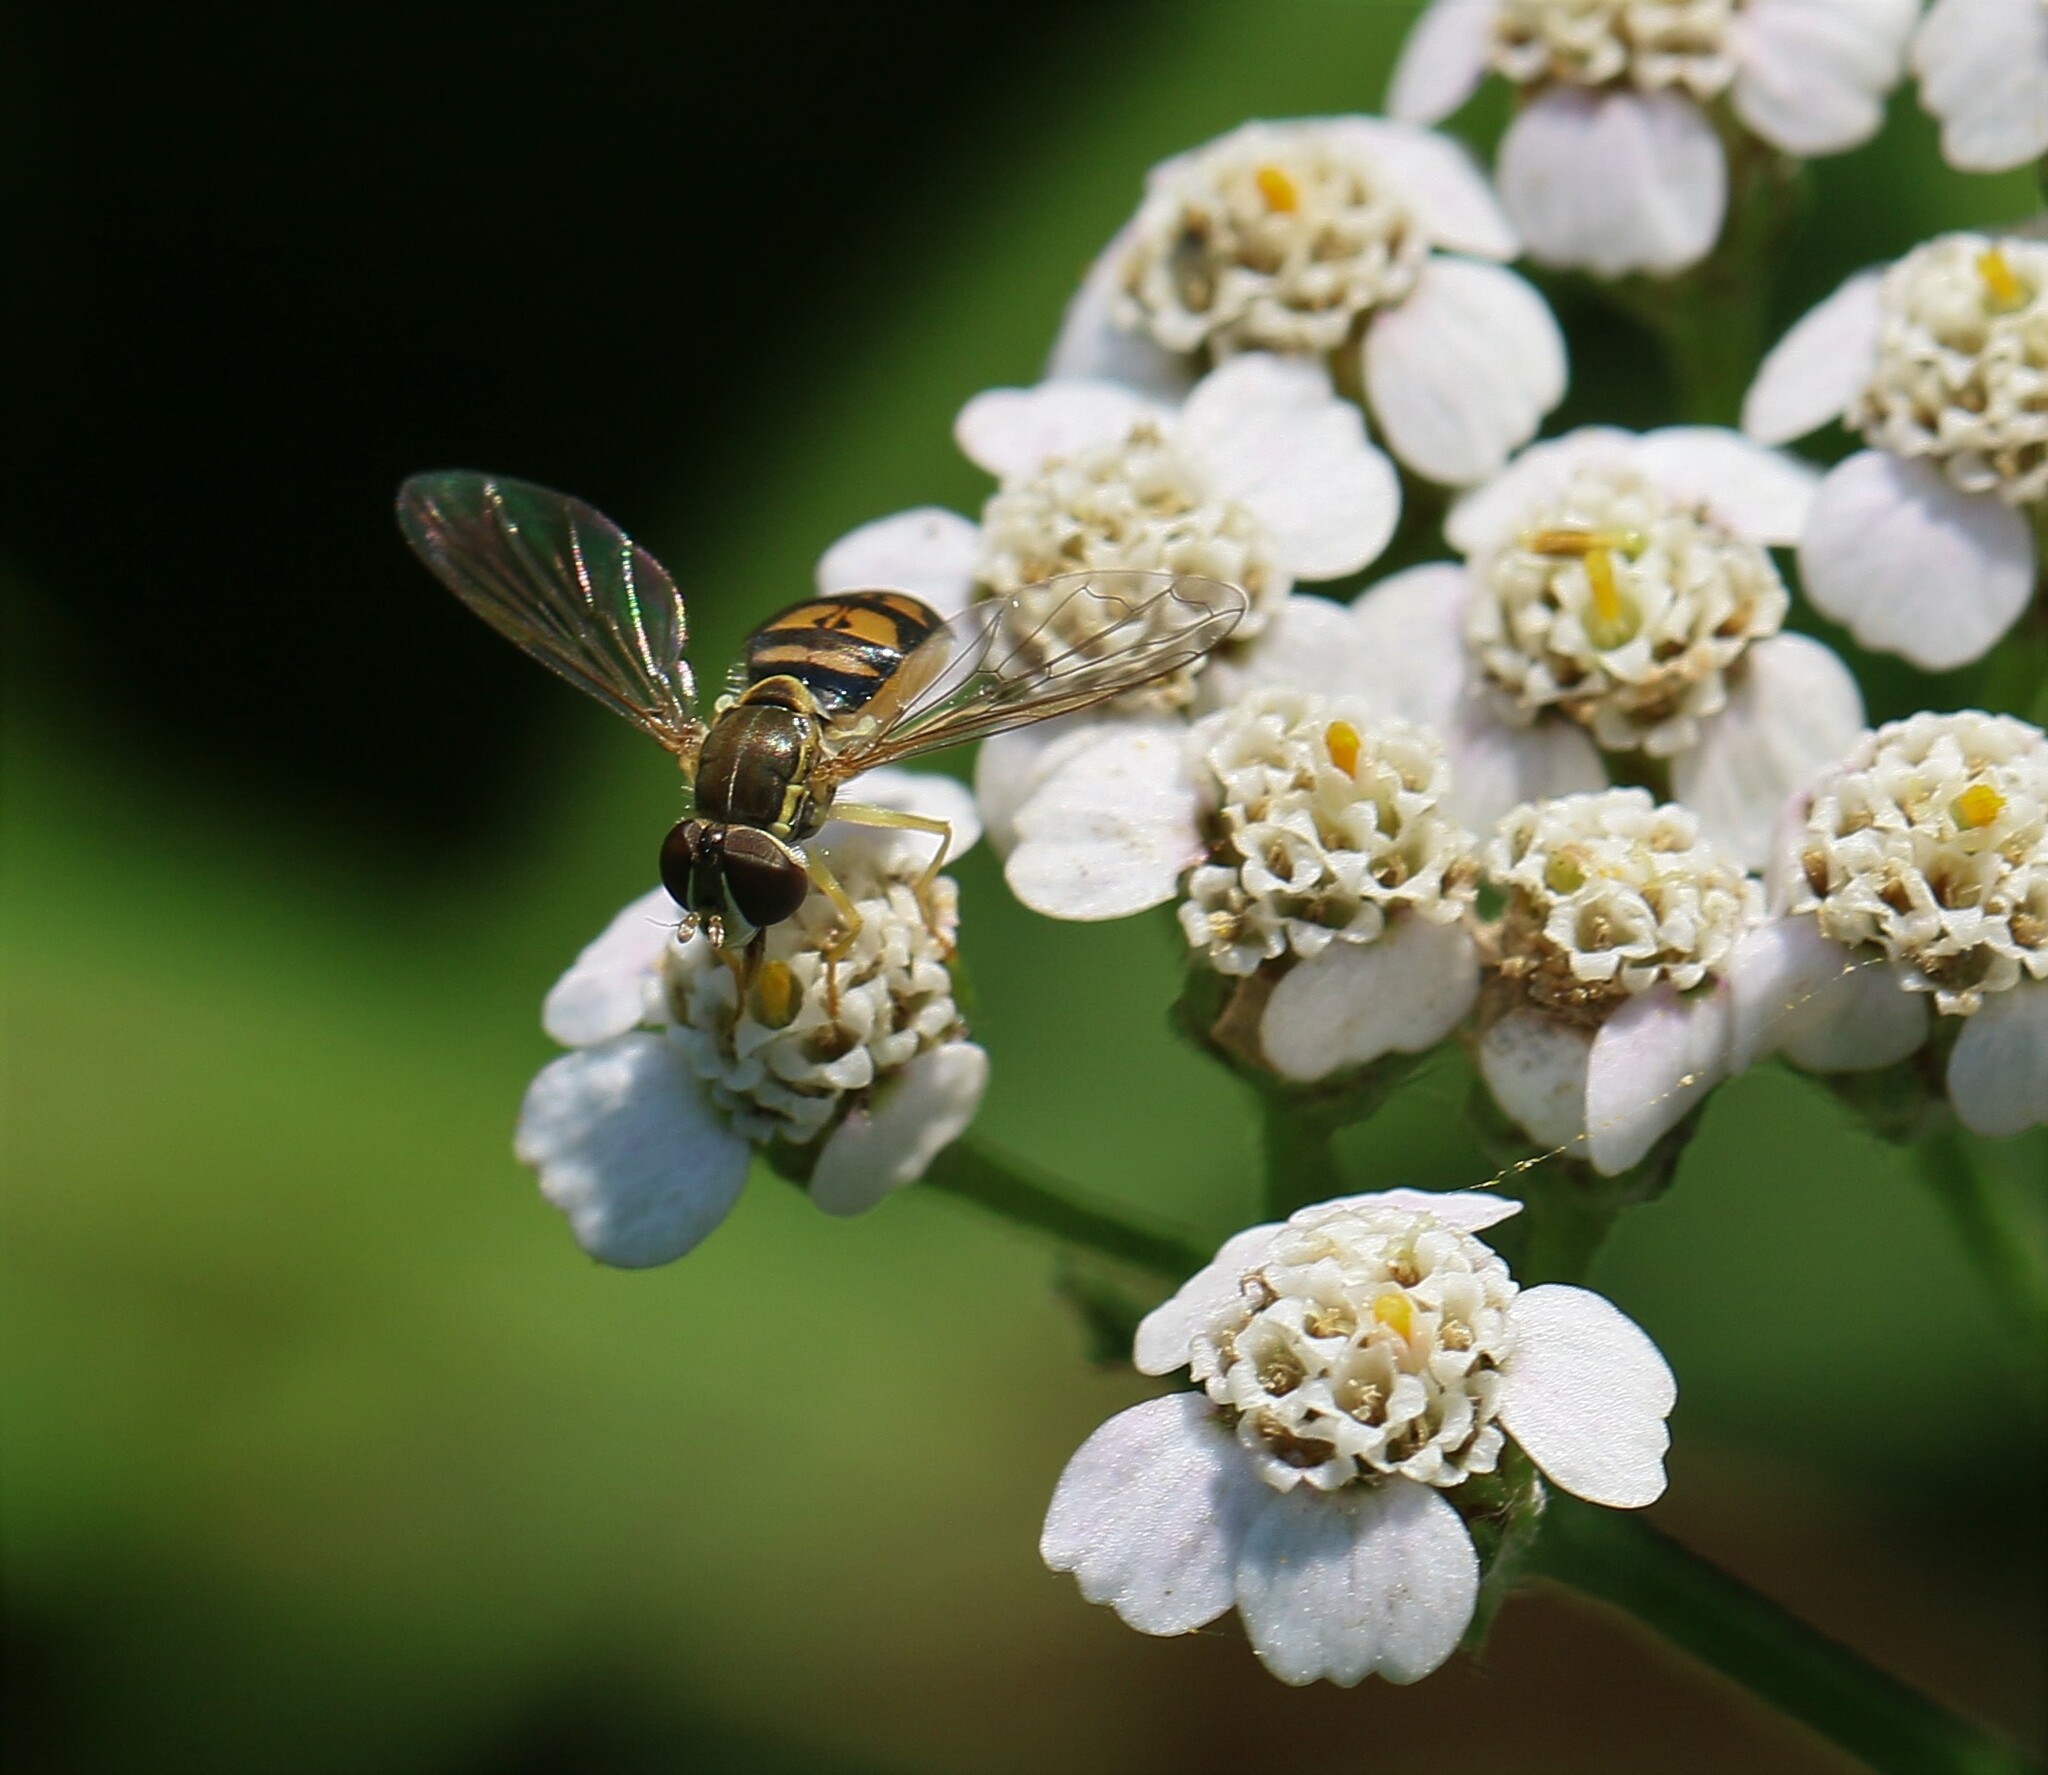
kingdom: Animalia
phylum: Arthropoda
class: Insecta
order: Diptera
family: Syrphidae
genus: Toxomerus
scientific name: Toxomerus marginatus
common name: Syrphid fly
